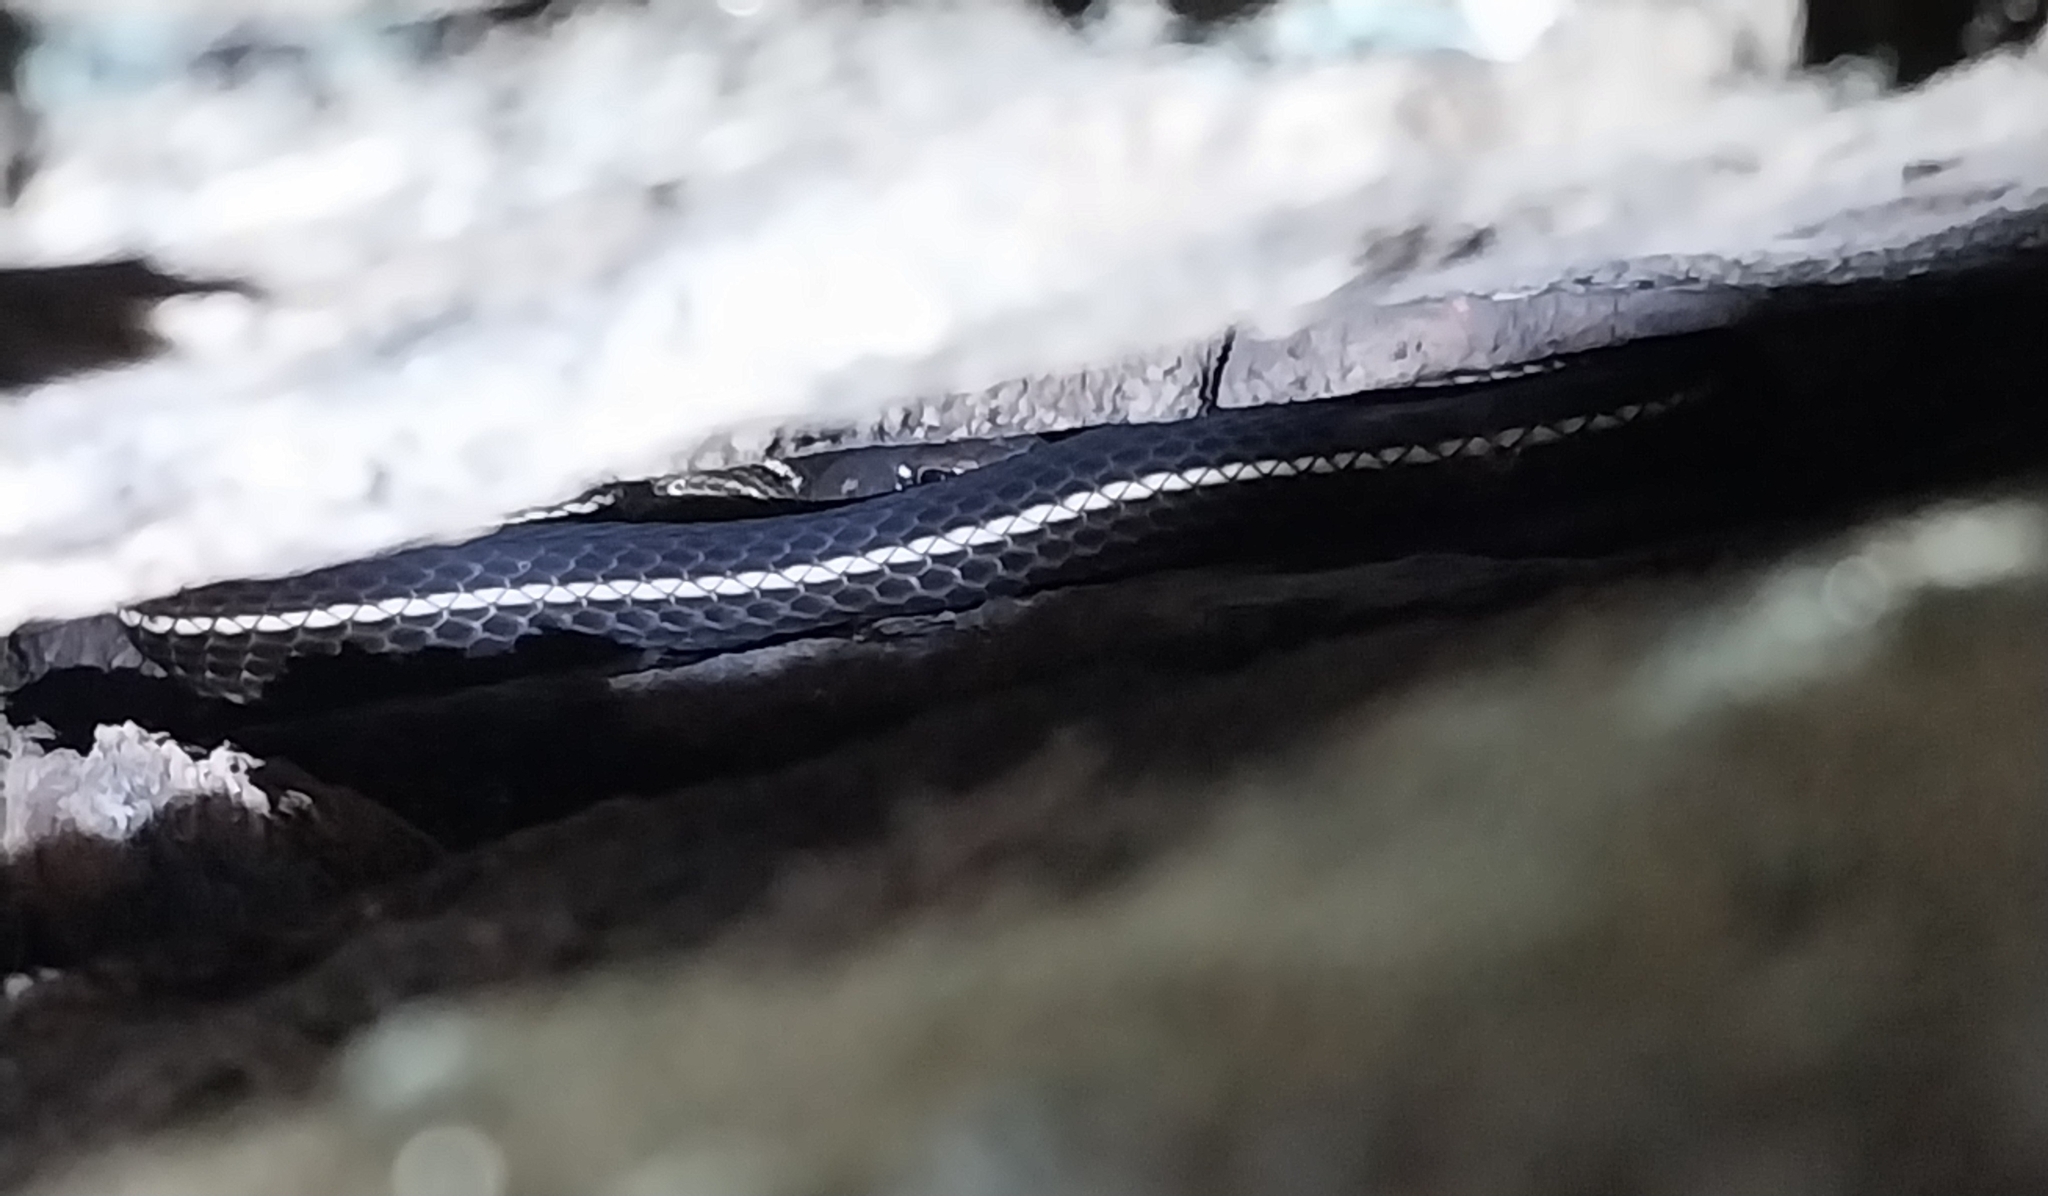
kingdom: Animalia
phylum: Chordata
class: Squamata
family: Colubridae
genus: Masticophis
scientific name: Masticophis lateralis
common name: Striped racer
